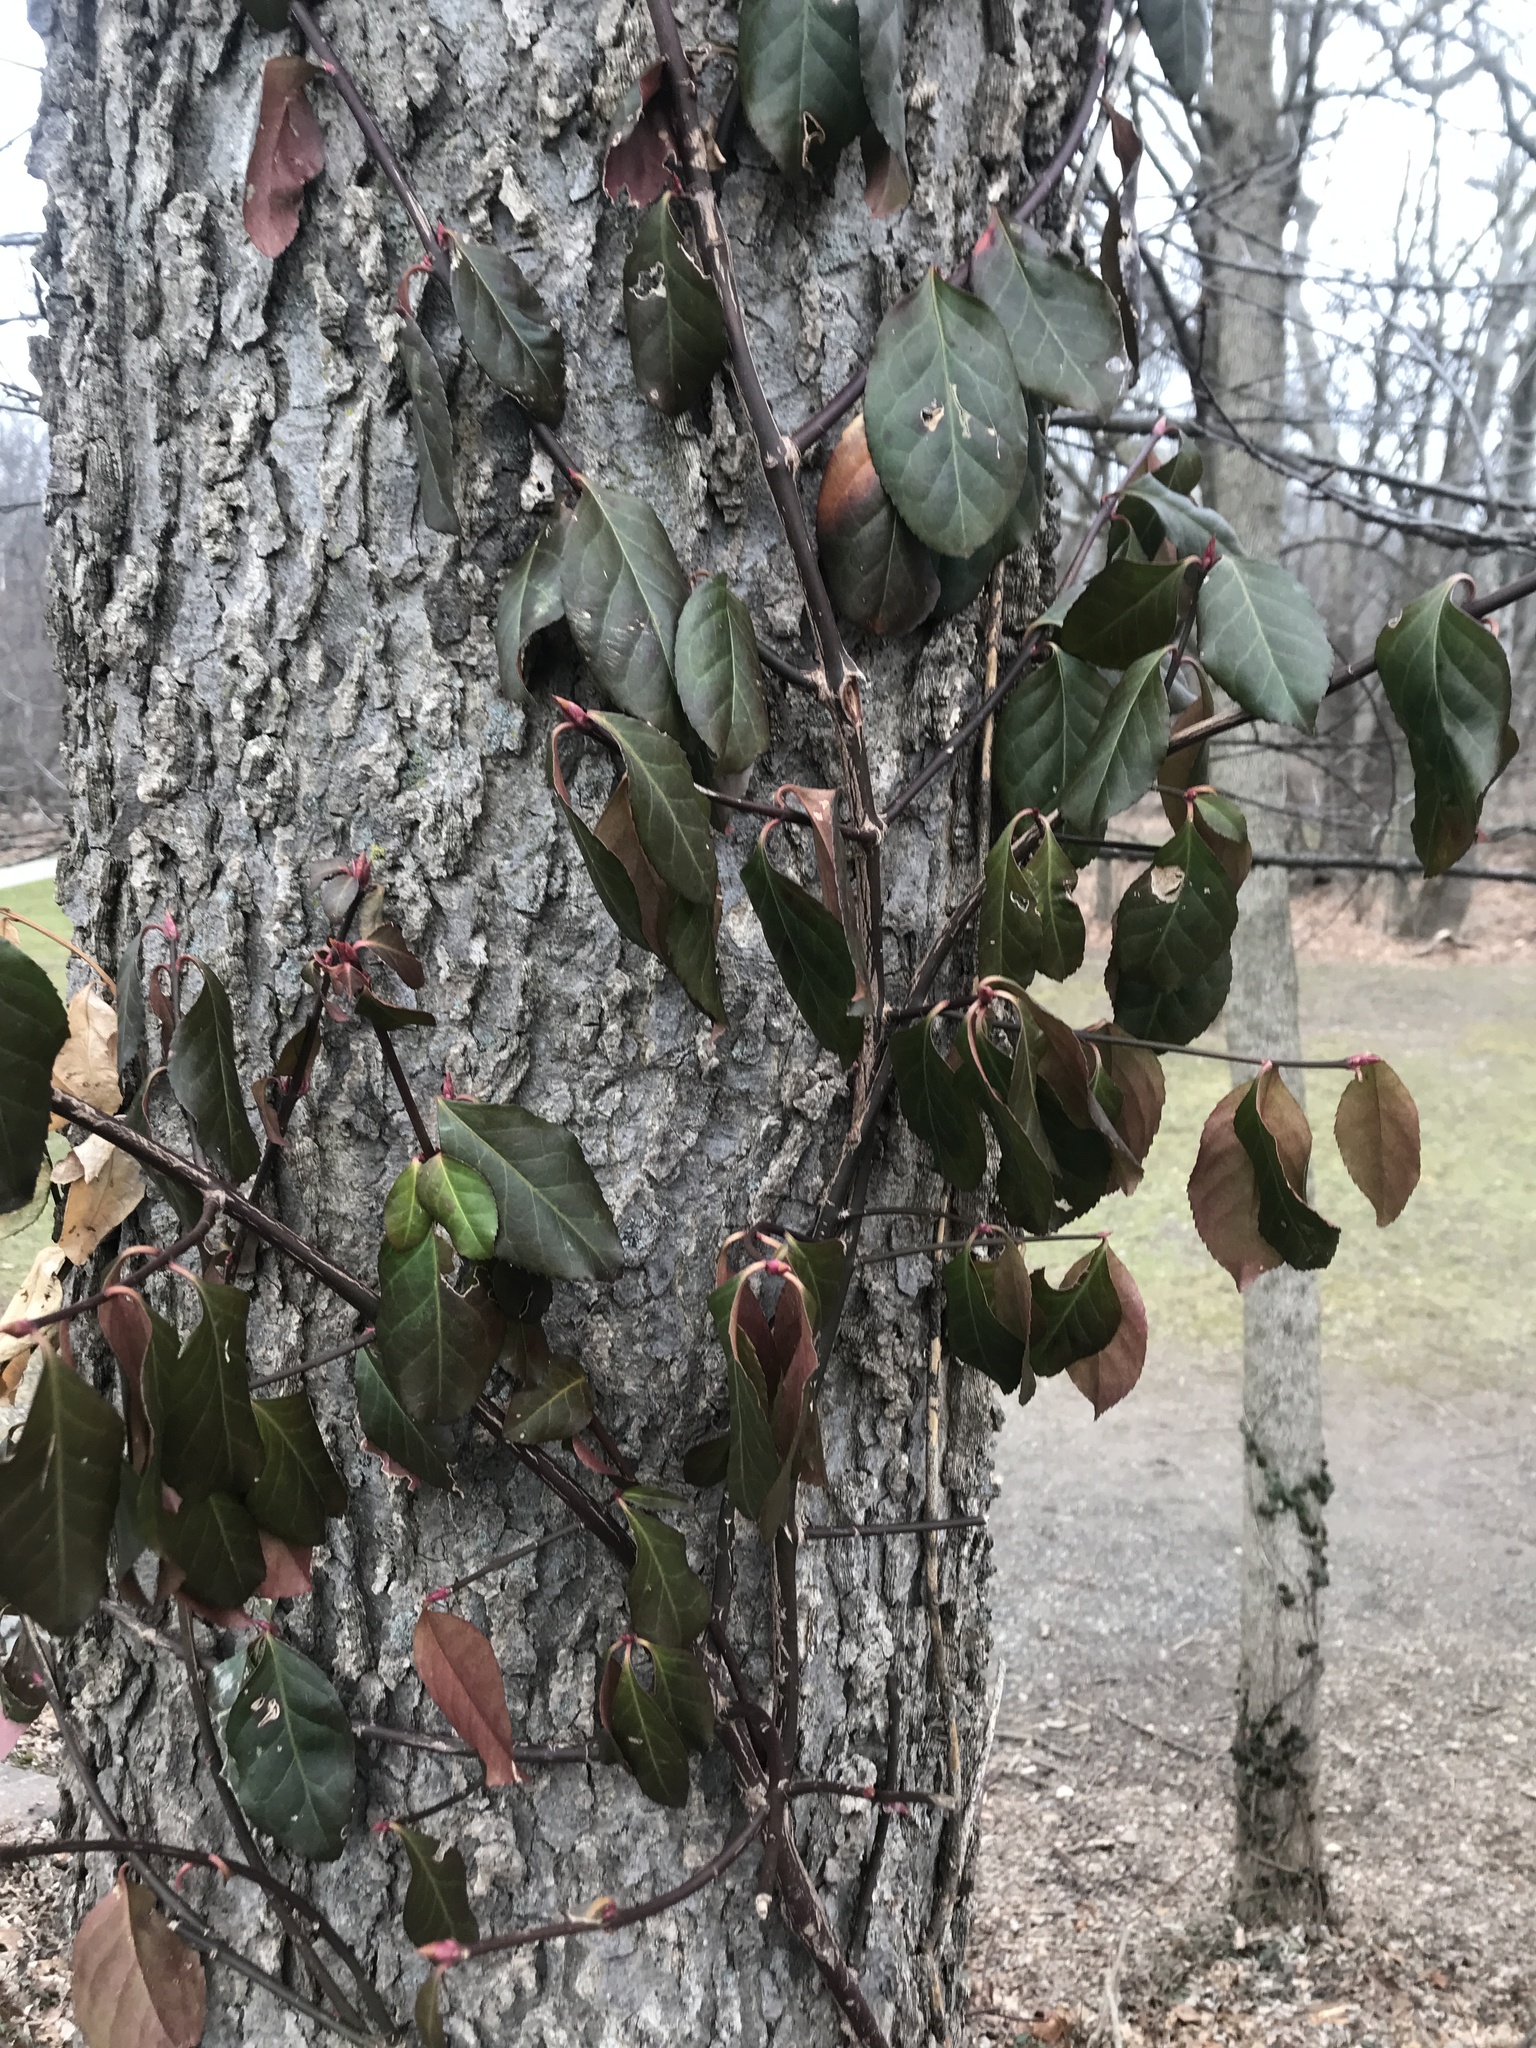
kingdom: Plantae
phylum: Tracheophyta
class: Magnoliopsida
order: Celastrales
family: Celastraceae
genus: Euonymus
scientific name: Euonymus fortunei
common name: Climbing euonymus
